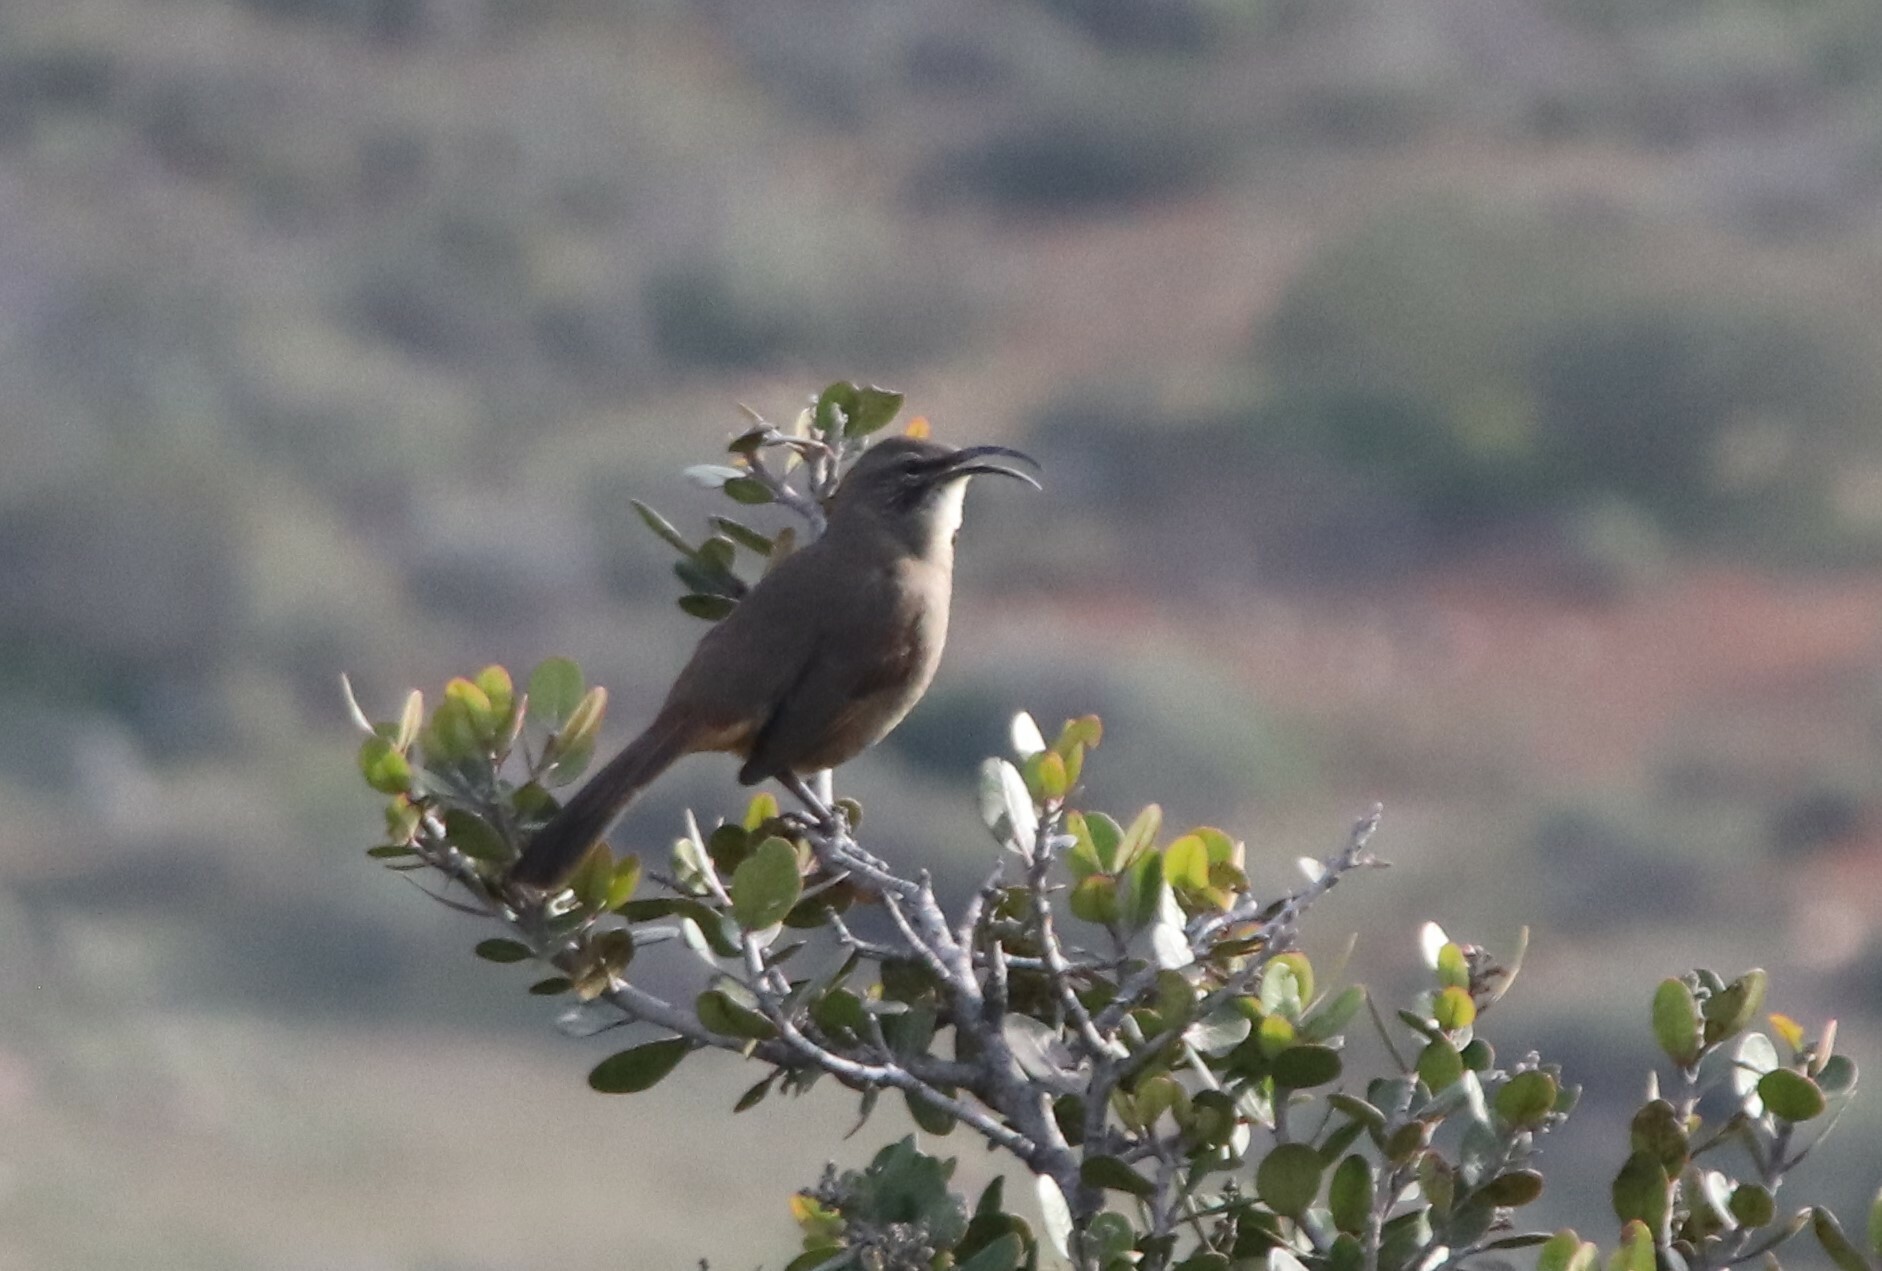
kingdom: Animalia
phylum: Chordata
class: Aves
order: Passeriformes
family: Mimidae
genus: Toxostoma
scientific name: Toxostoma redivivum
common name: California thrasher
